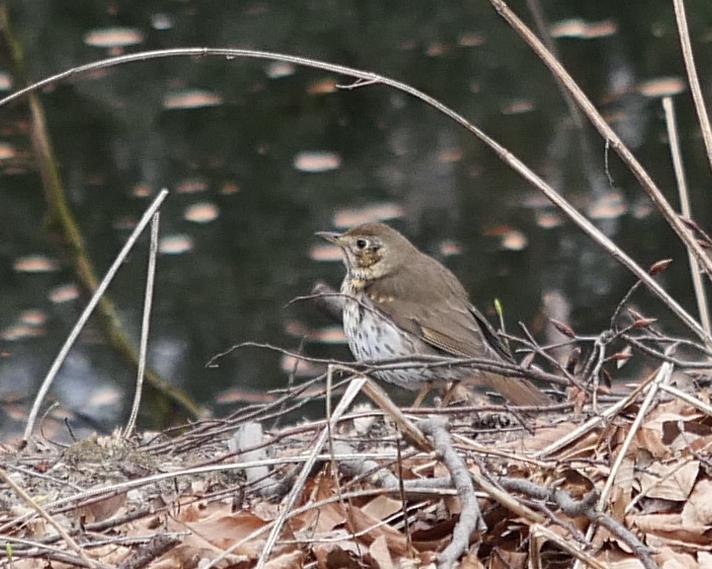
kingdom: Animalia
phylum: Chordata
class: Aves
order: Passeriformes
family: Turdidae
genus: Turdus
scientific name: Turdus philomelos
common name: Song thrush
